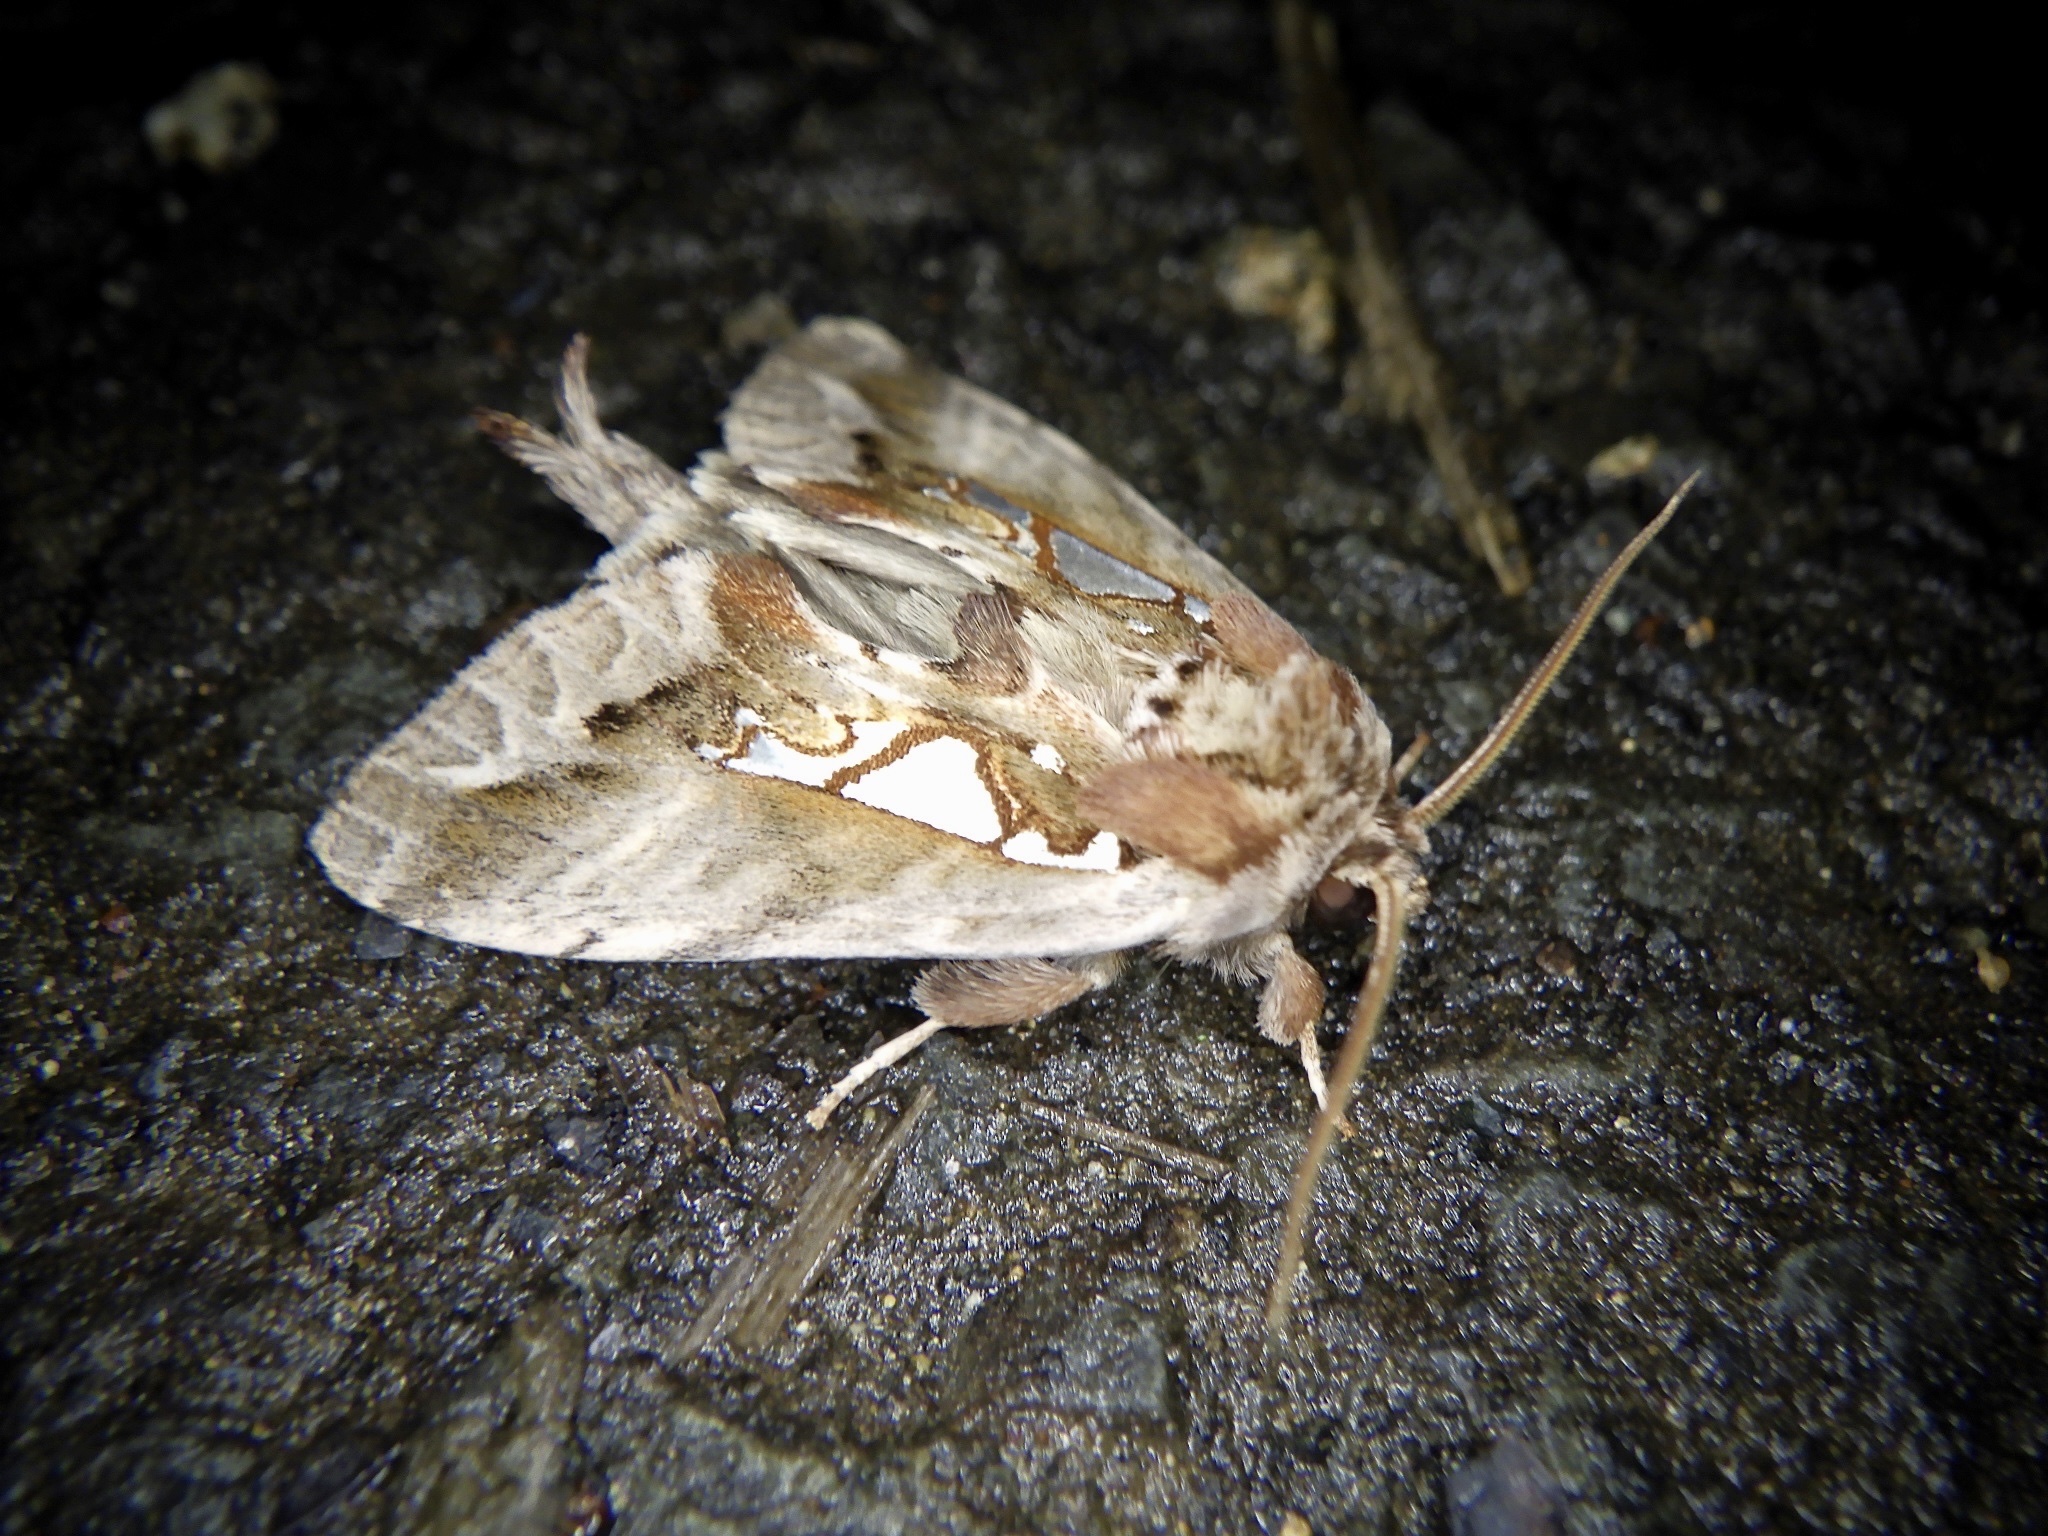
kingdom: Animalia
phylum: Arthropoda
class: Insecta
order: Lepidoptera
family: Notodontidae
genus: Spatalia
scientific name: Spatalia doerriesi
